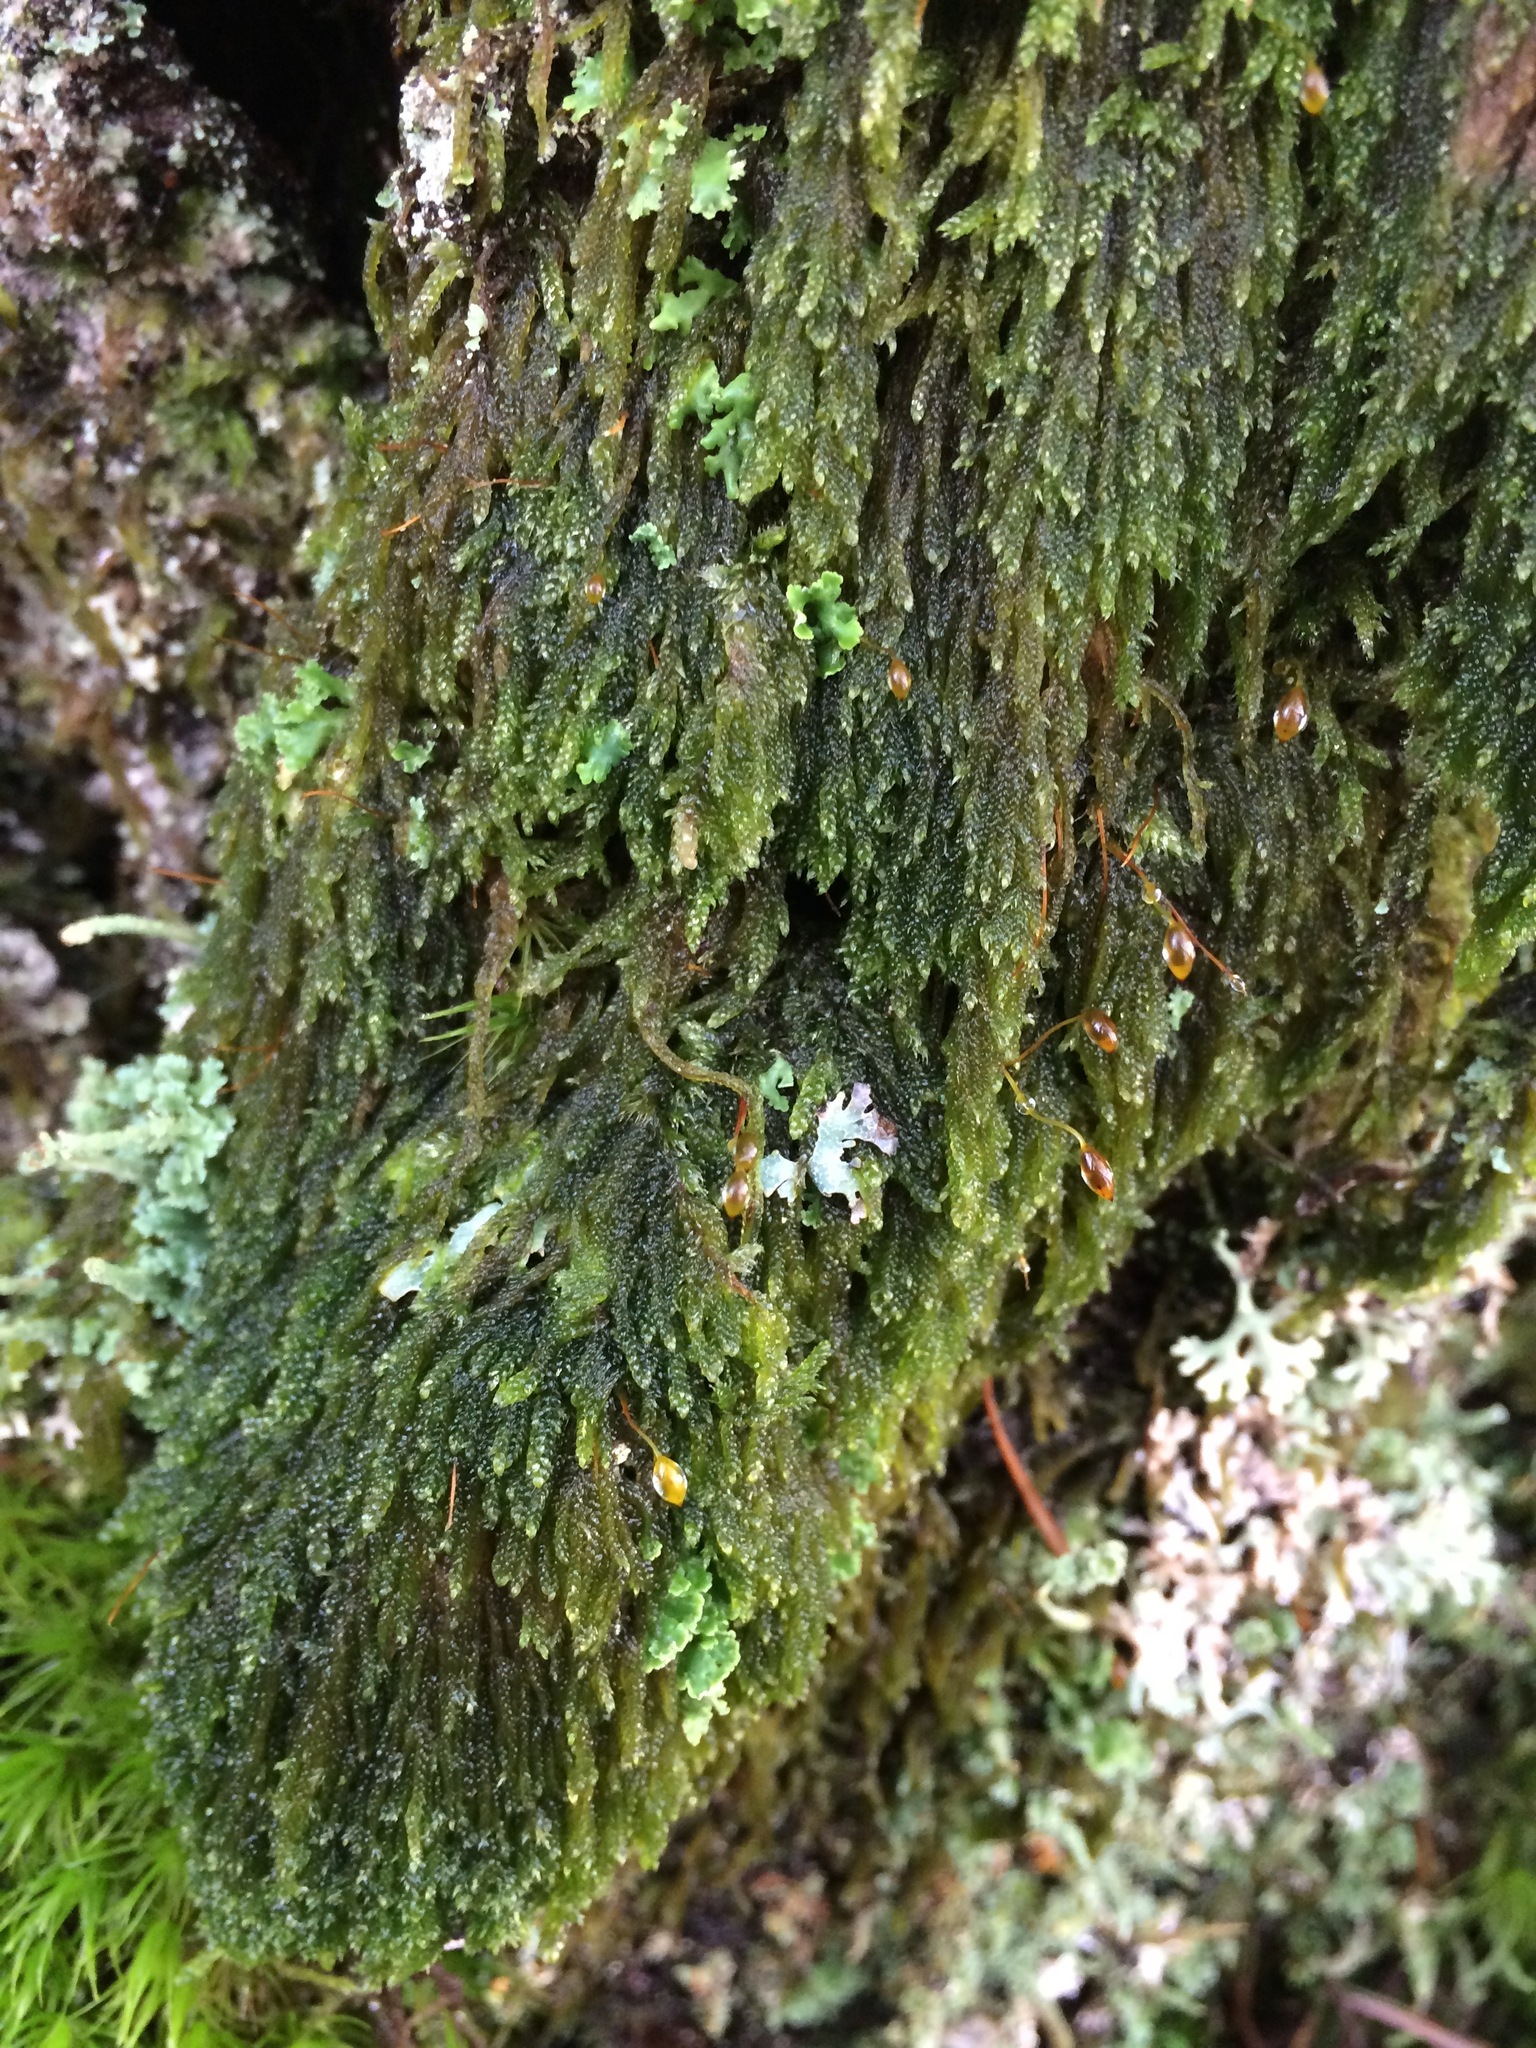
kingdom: Plantae
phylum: Bryophyta
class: Bryopsida
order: Hypnales
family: Pylaisiadelphaceae
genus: Trochophyllohypnum
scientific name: Trochophyllohypnum circinale
